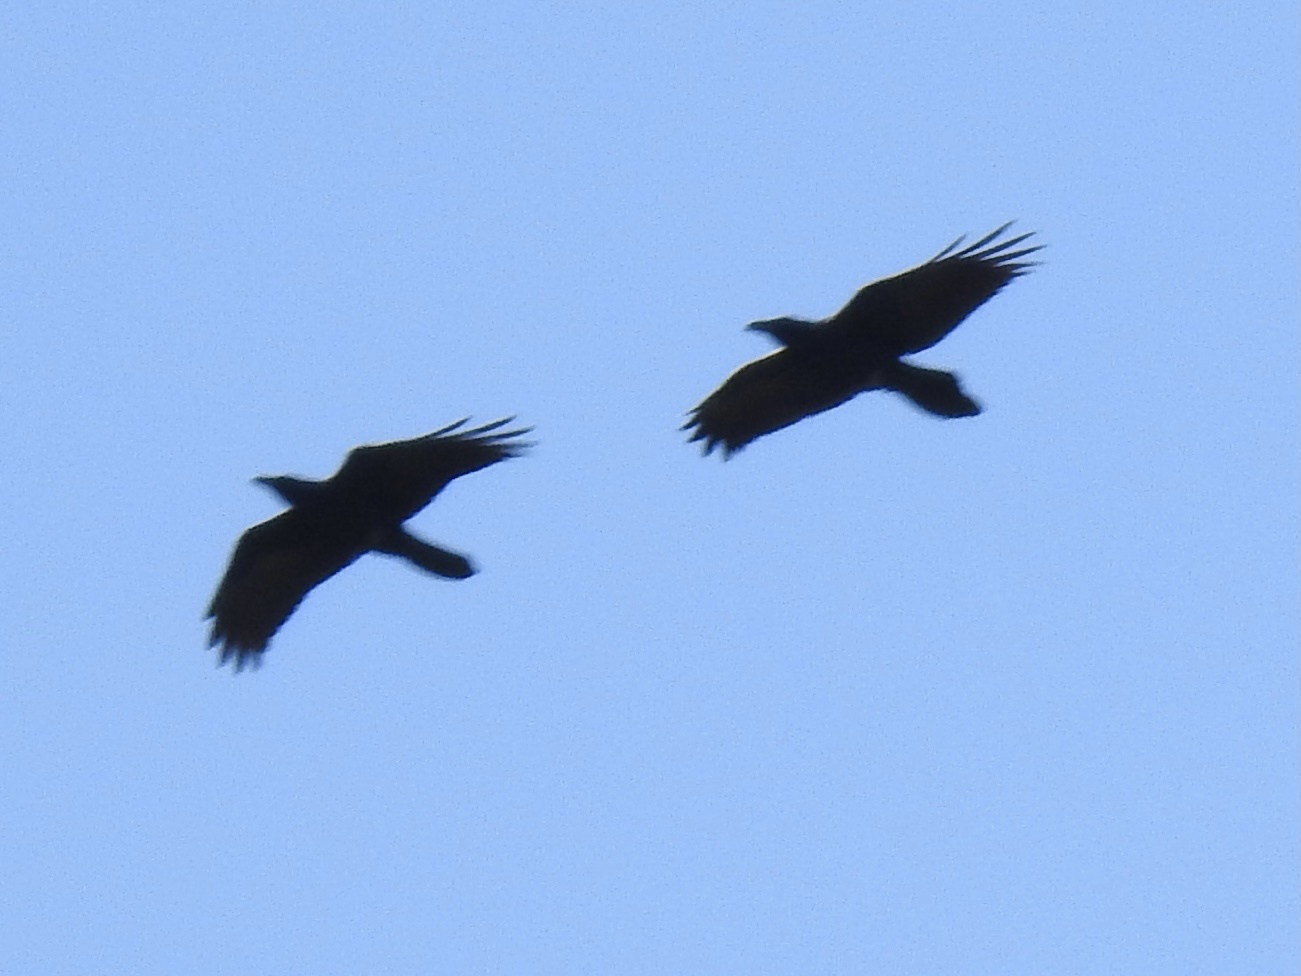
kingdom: Animalia
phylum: Chordata
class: Aves
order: Passeriformes
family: Corvidae
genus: Corvus
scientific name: Corvus corax
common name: Common raven
